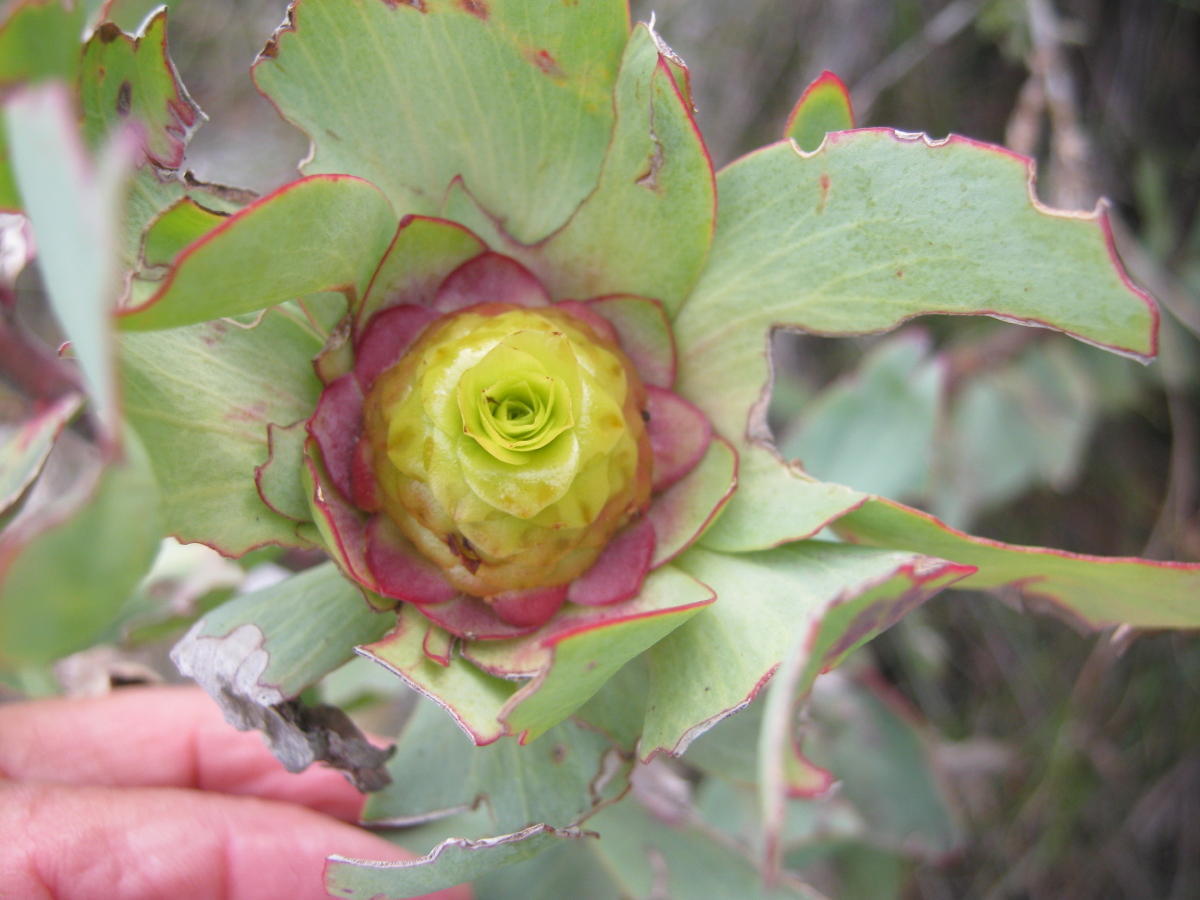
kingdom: Plantae
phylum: Tracheophyta
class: Magnoliopsida
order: Proteales
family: Proteaceae
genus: Leucadendron
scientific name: Leucadendron tinctum
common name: Spicy conebush
